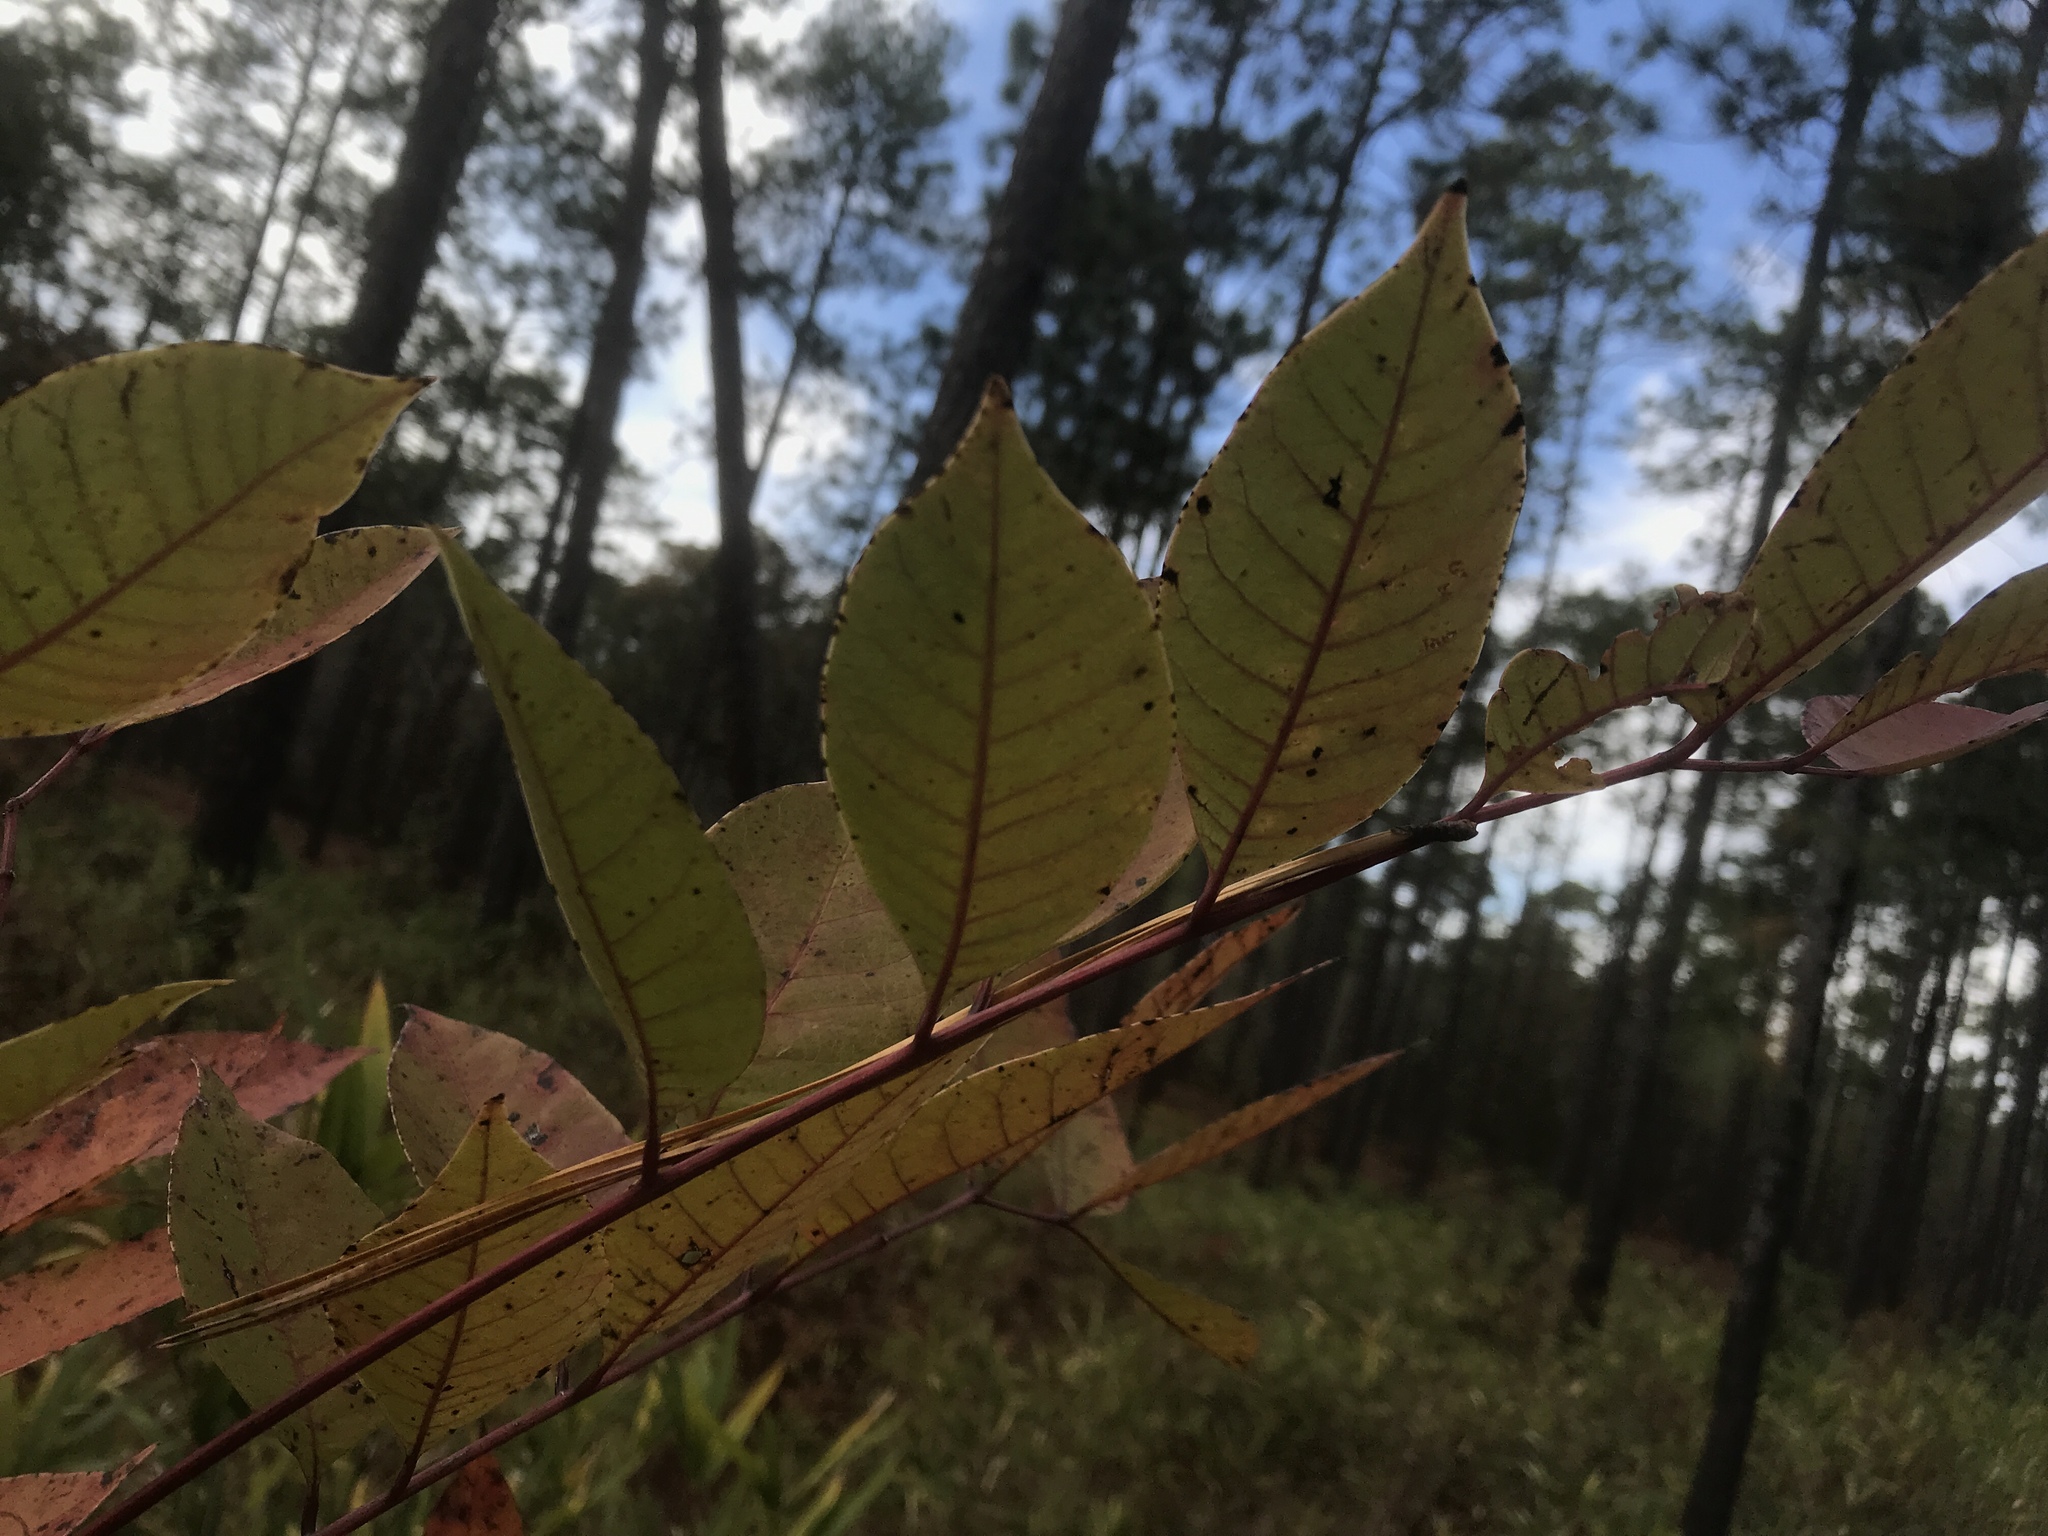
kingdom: Plantae
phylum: Tracheophyta
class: Magnoliopsida
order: Sapindales
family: Anacardiaceae
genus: Toxicodendron
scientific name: Toxicodendron vernix
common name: Poison sumac
